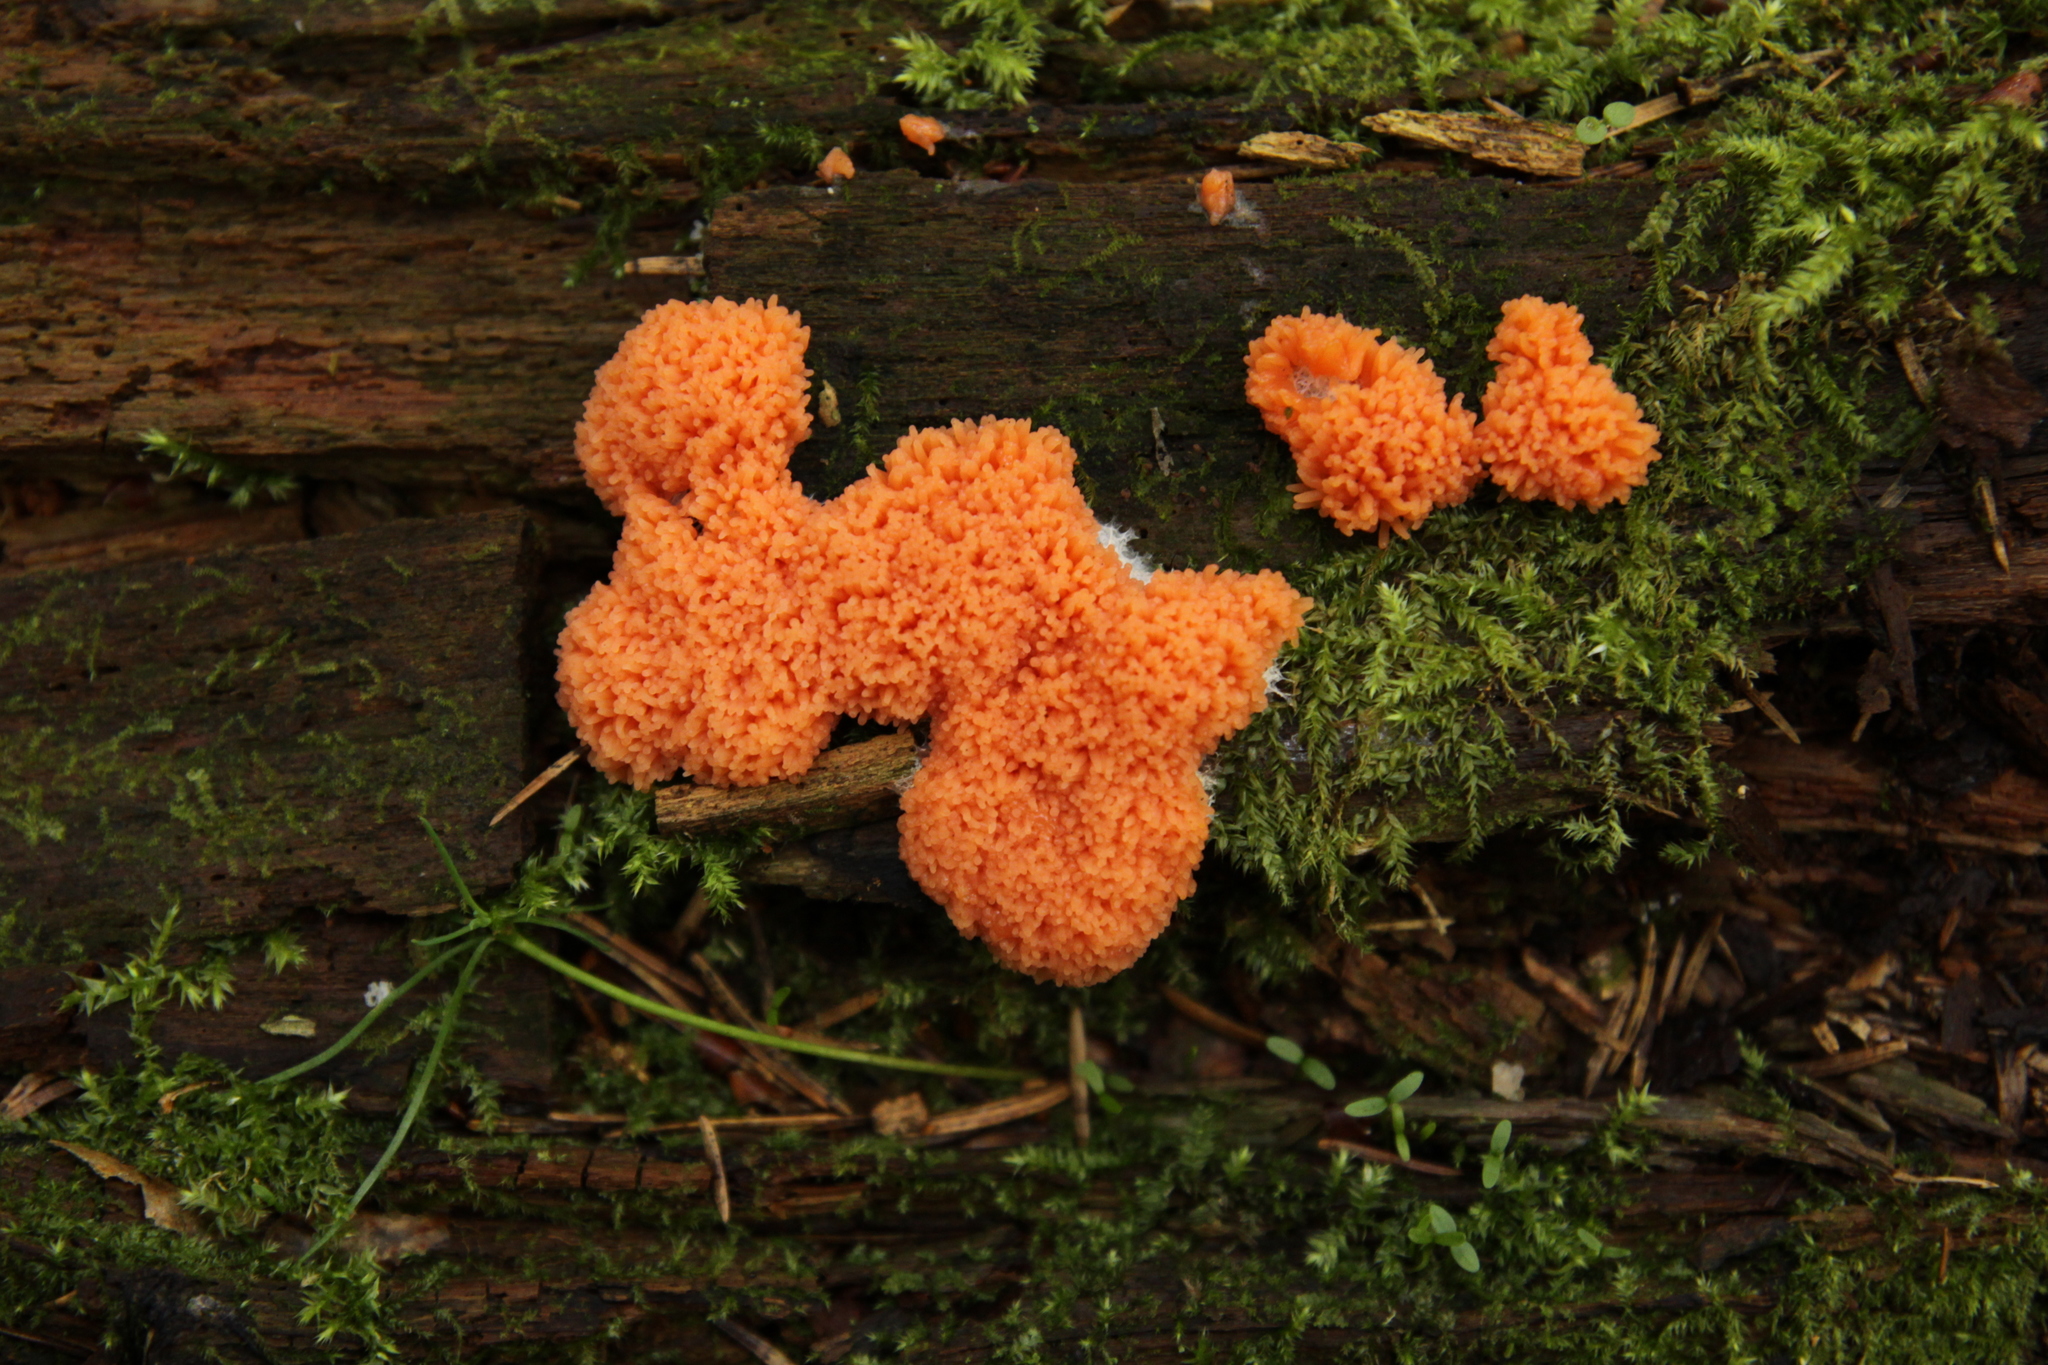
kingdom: Protozoa
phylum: Mycetozoa
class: Myxomycetes
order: Cribrariales
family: Tubiferaceae
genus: Tubifera
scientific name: Tubifera ferruginosa
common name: Red raspberry slime mold
